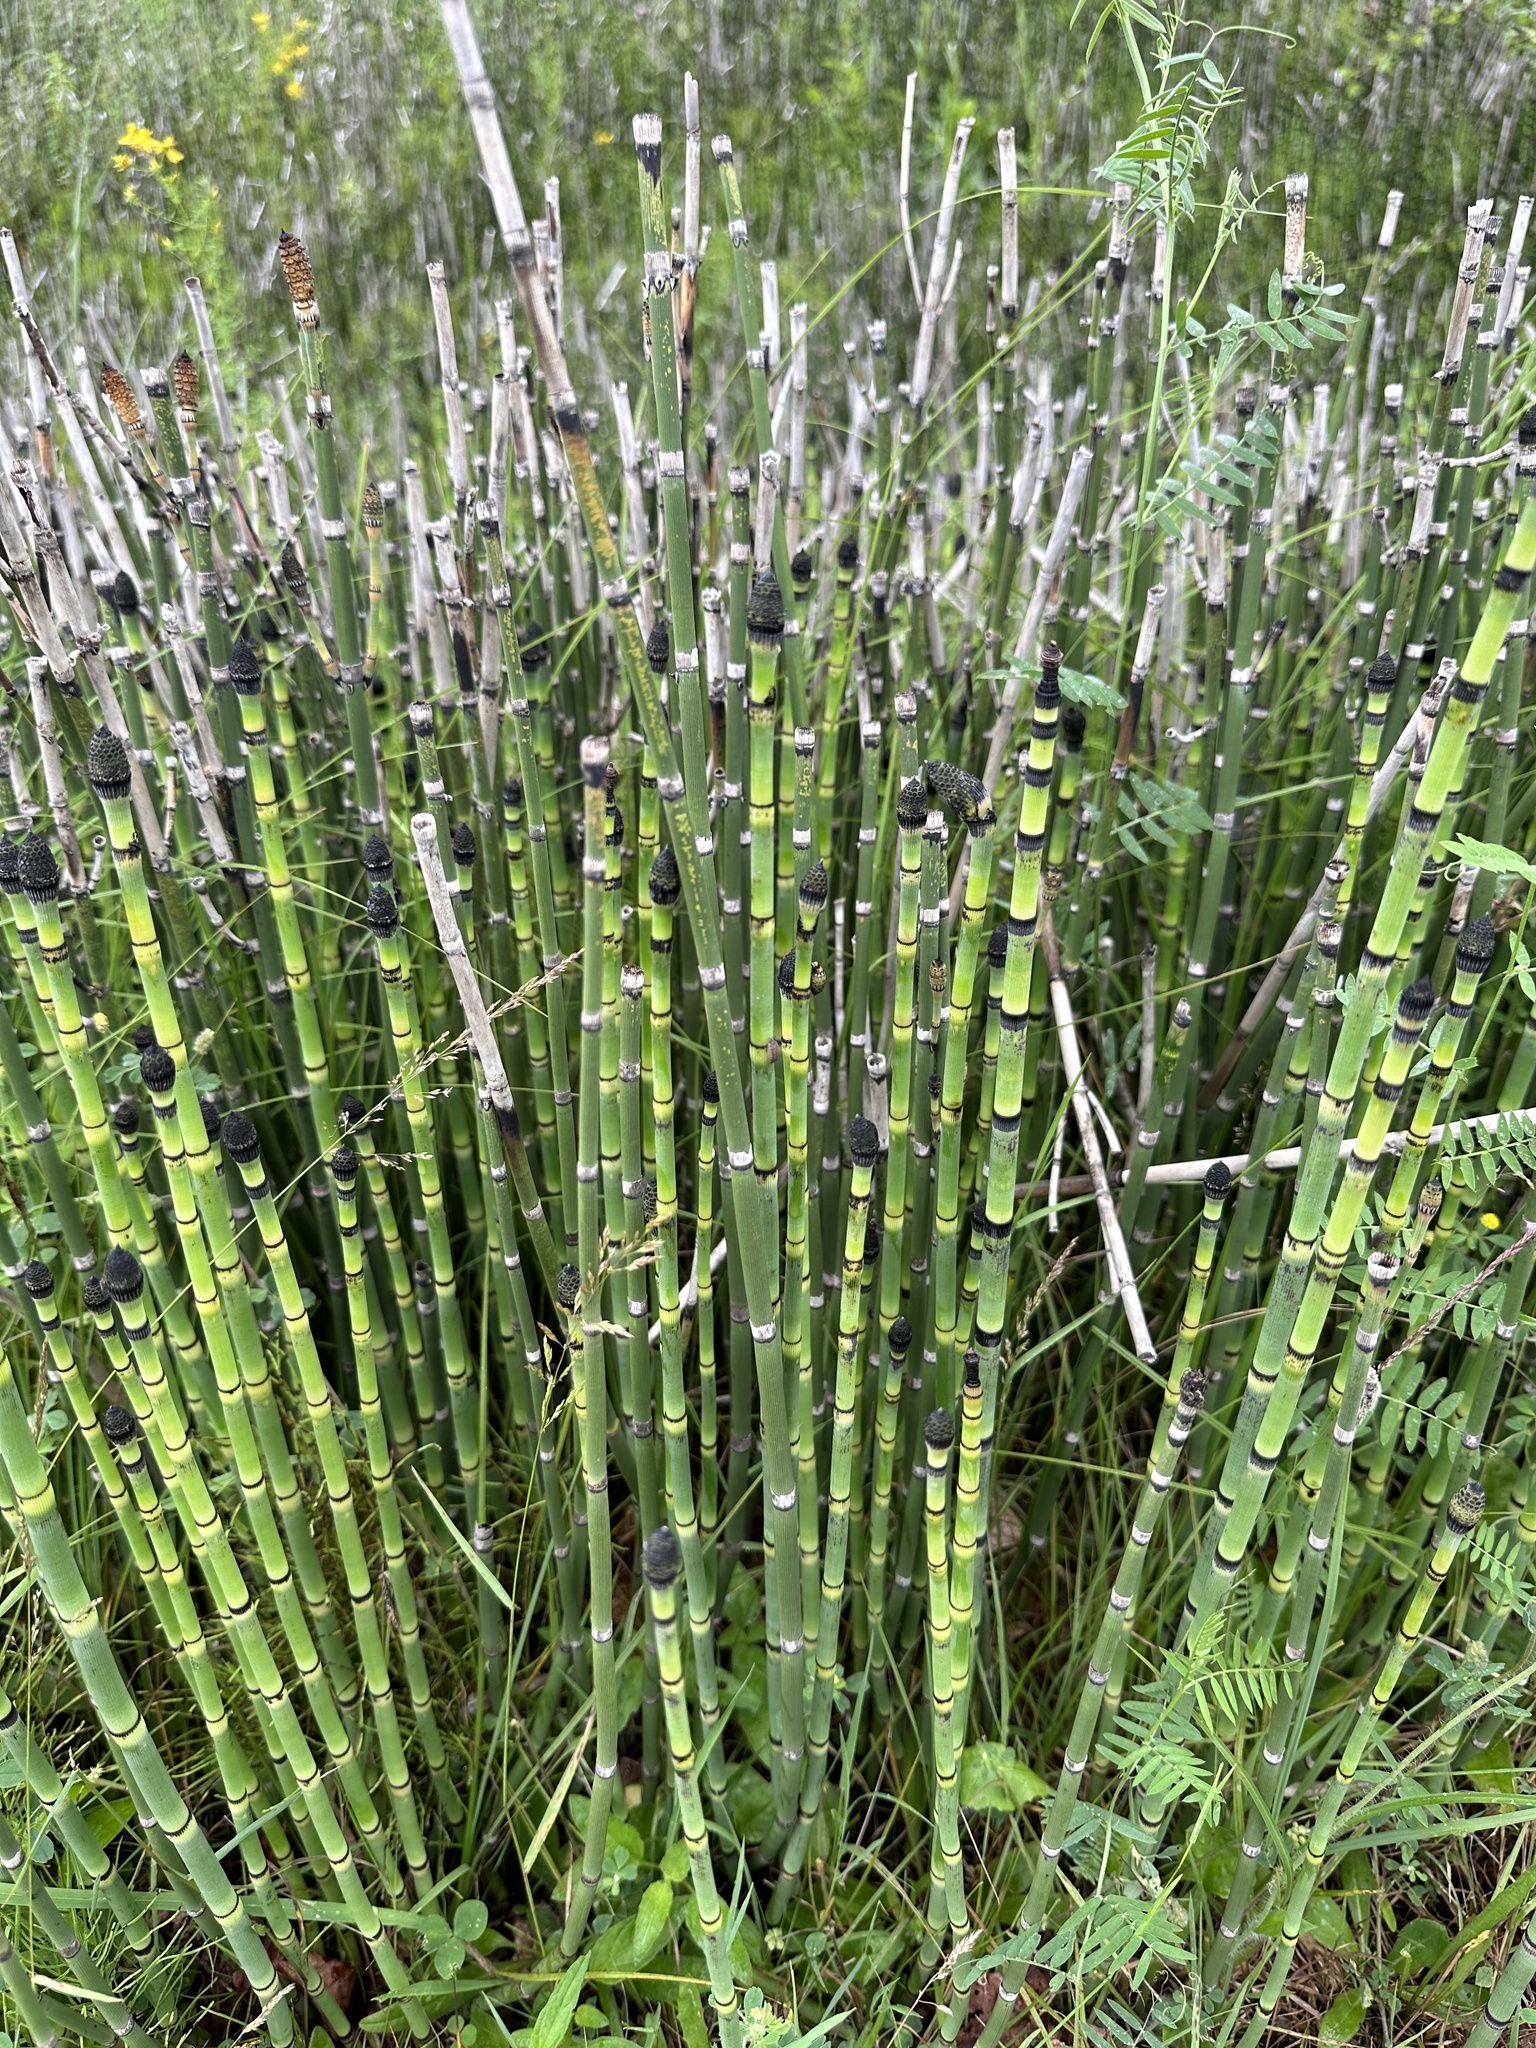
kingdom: Plantae
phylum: Tracheophyta
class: Polypodiopsida
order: Equisetales
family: Equisetaceae
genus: Equisetum
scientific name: Equisetum praealtum
